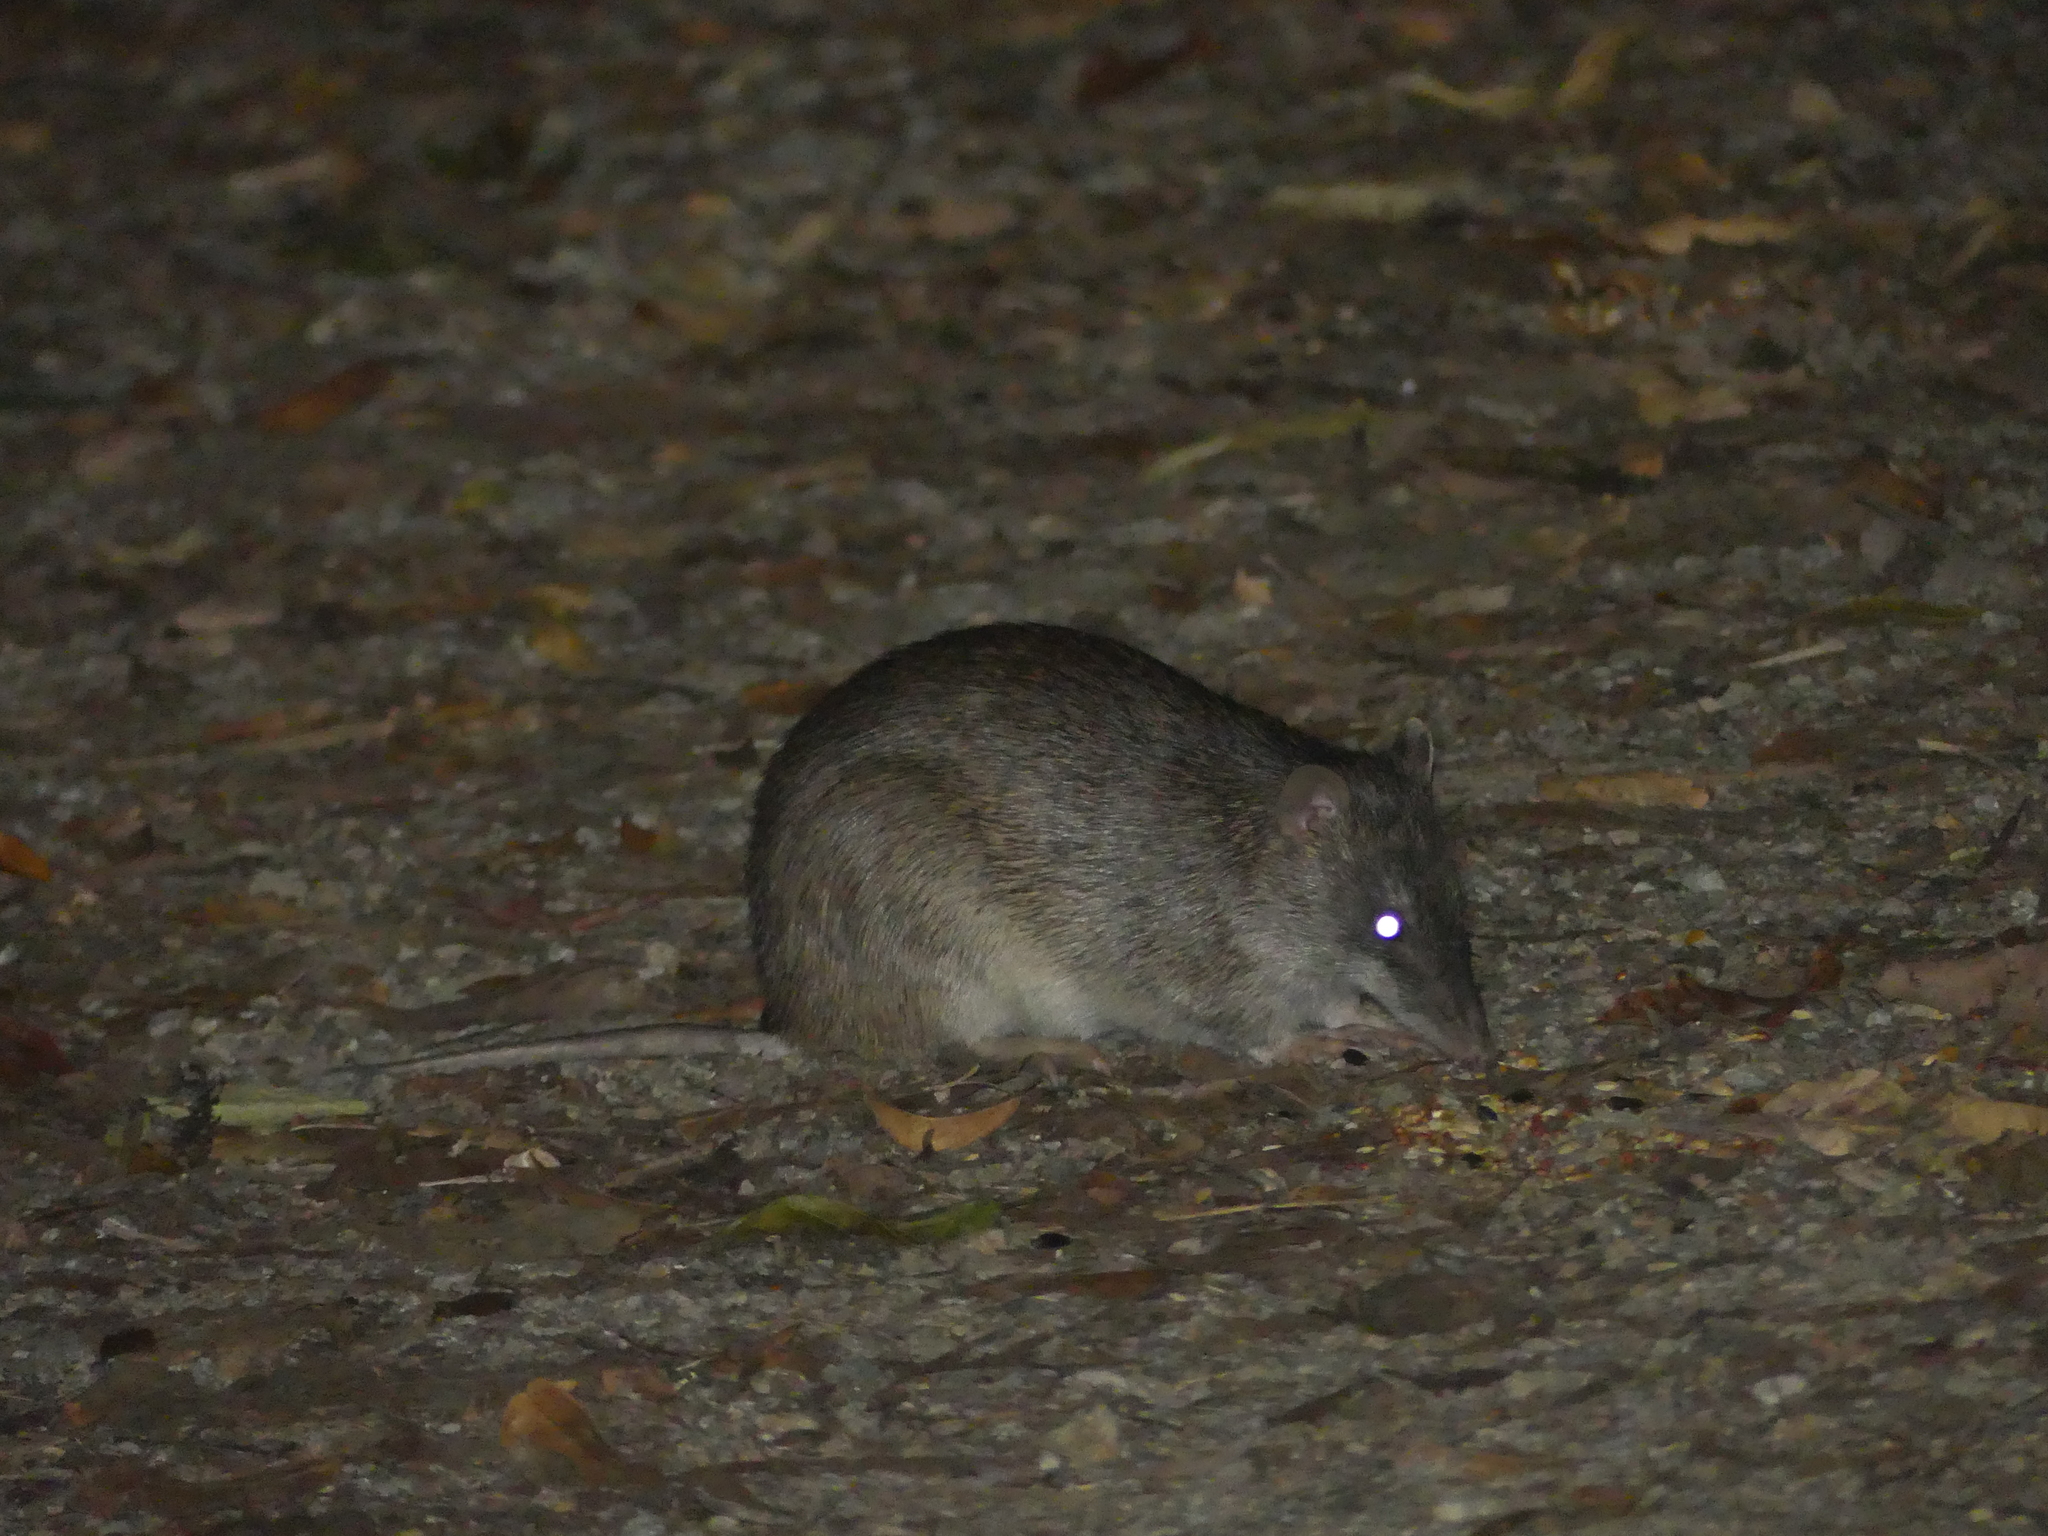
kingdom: Animalia
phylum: Chordata
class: Mammalia
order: Peramelemorphia
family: Peramelidae
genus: Isoodon
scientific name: Isoodon macrourus
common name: Northern brown bandicoot
